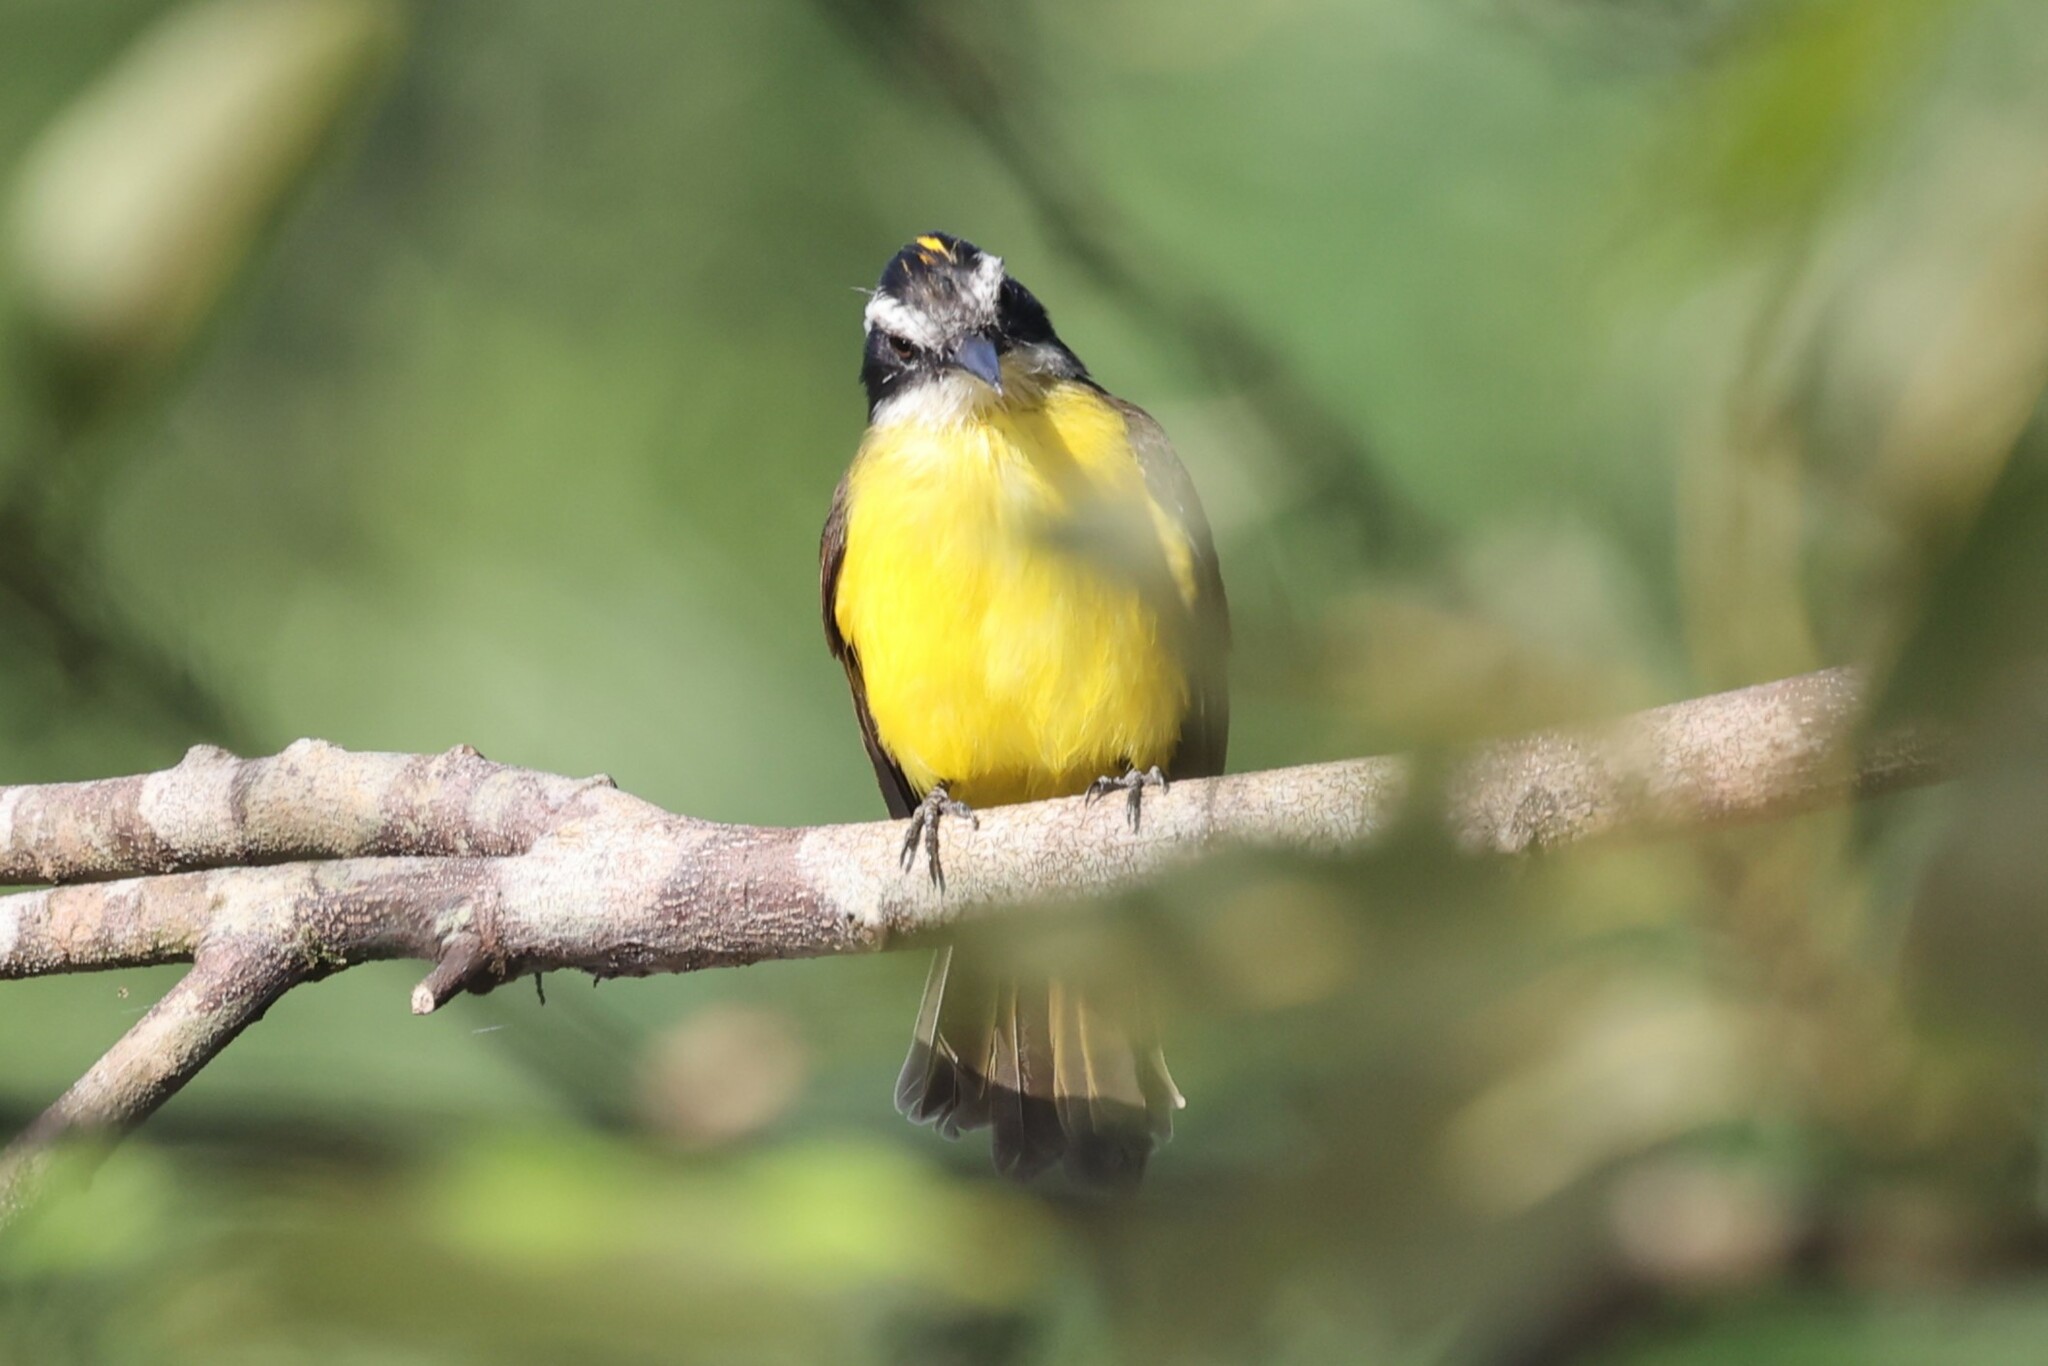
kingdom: Animalia
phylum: Chordata
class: Aves
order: Passeriformes
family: Tyrannidae
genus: Pitangus
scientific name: Pitangus lictor
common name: Lesser kiskadee
